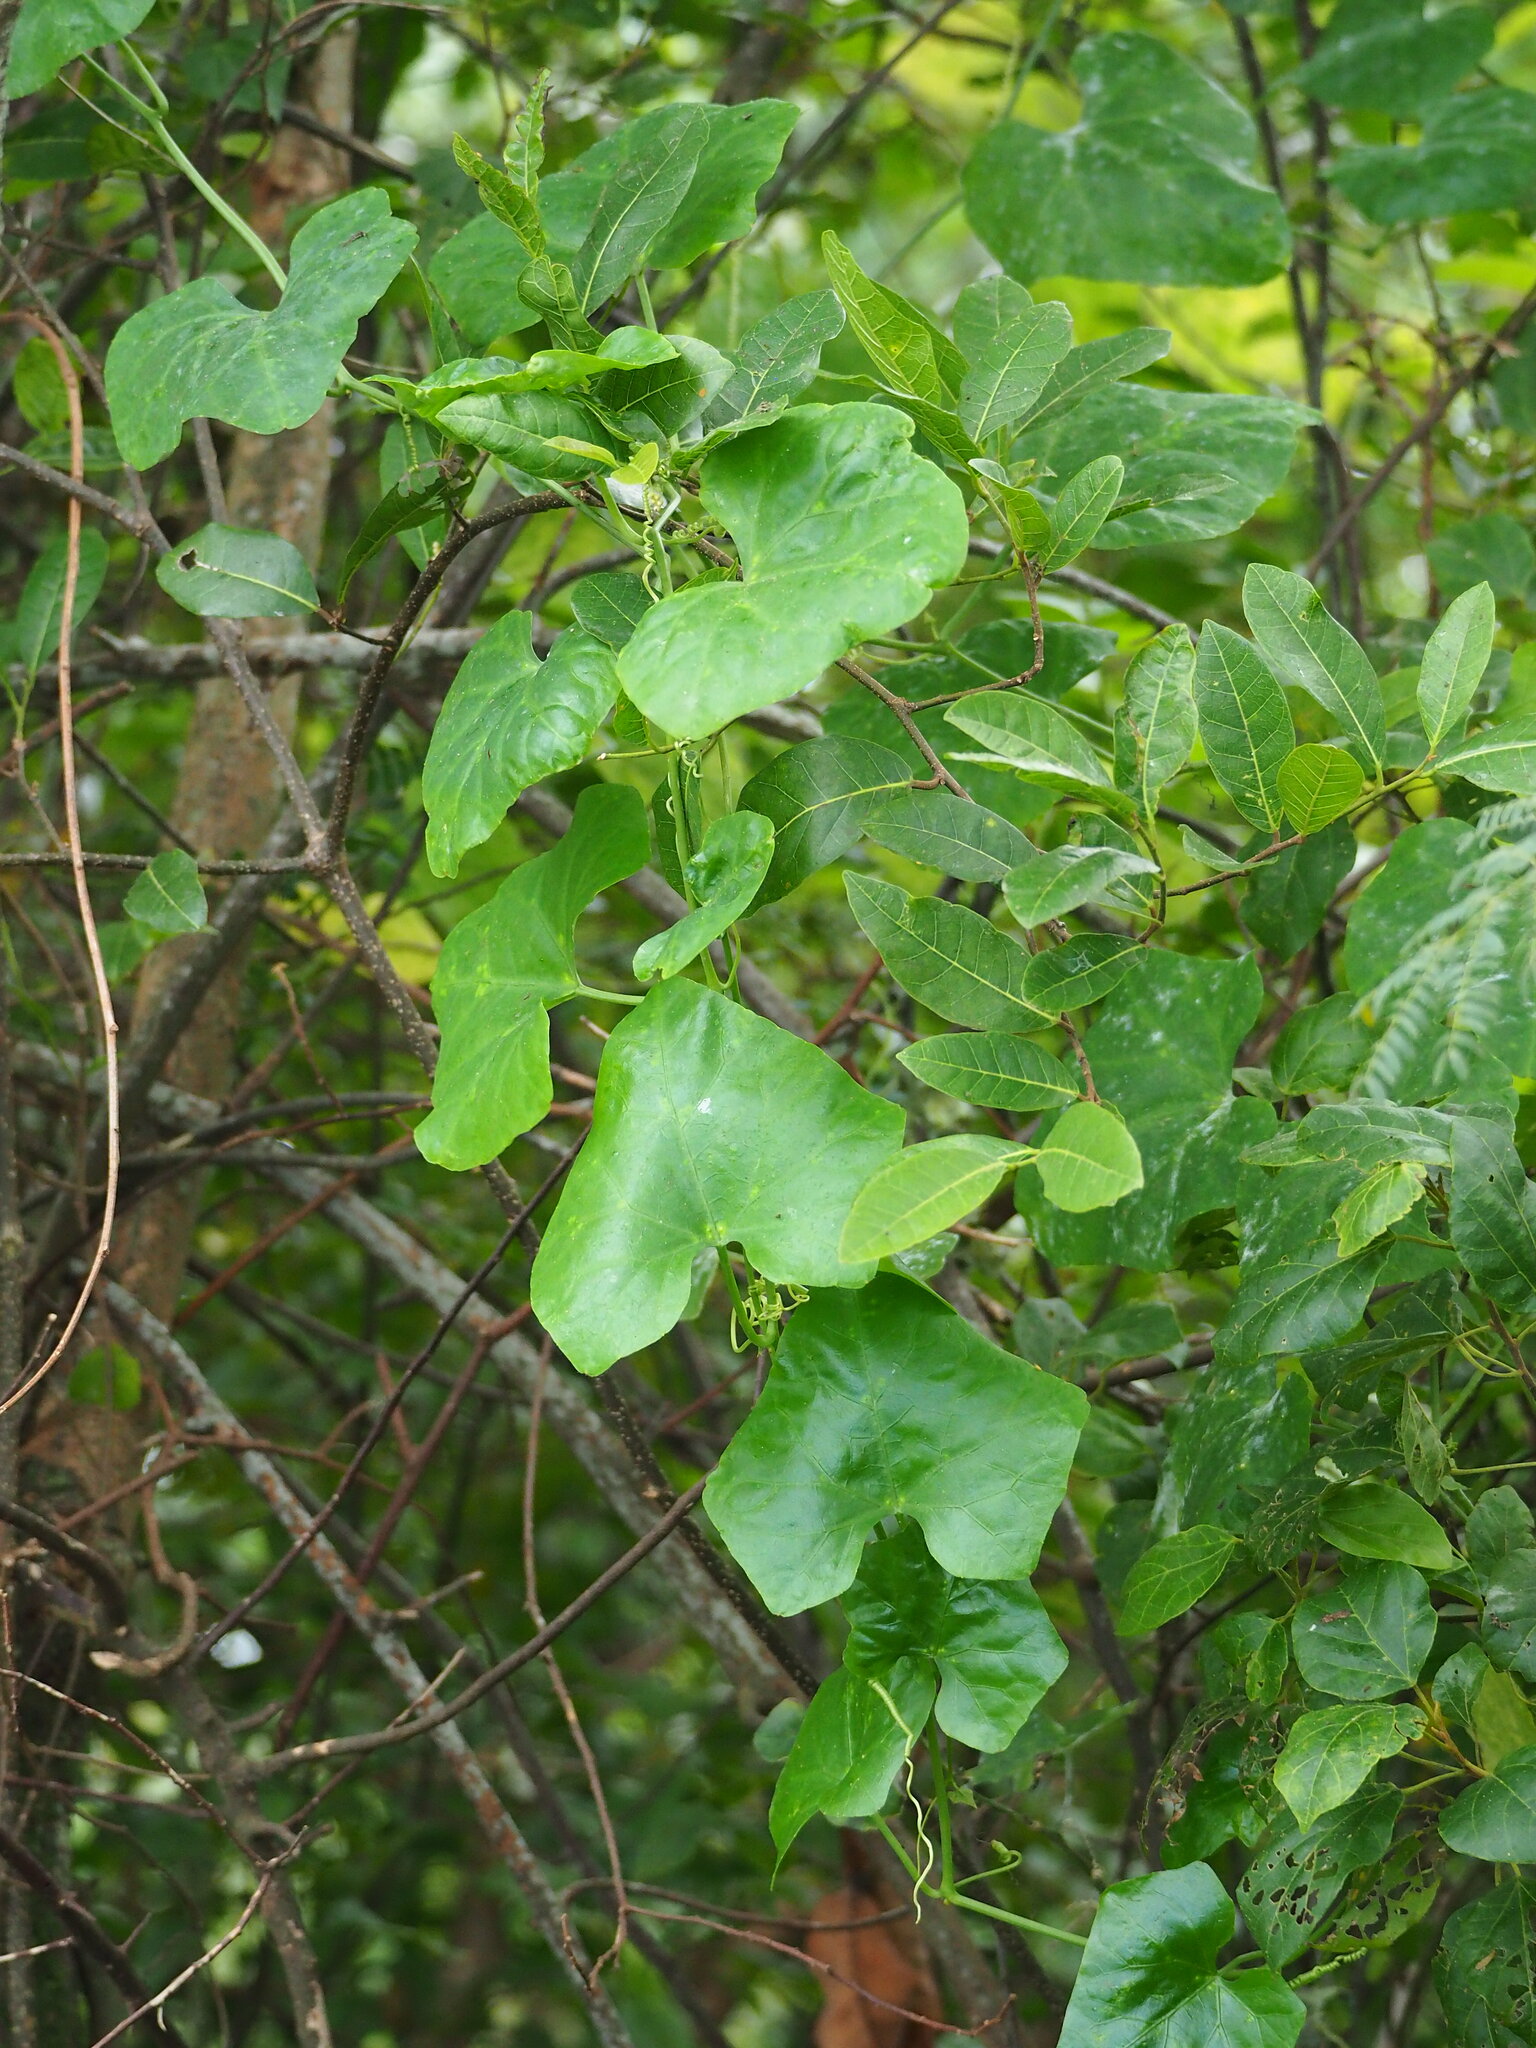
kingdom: Plantae
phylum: Tracheophyta
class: Magnoliopsida
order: Cucurbitales
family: Cucurbitaceae
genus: Coccinia
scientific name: Coccinia grandis
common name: Ivy gourd
